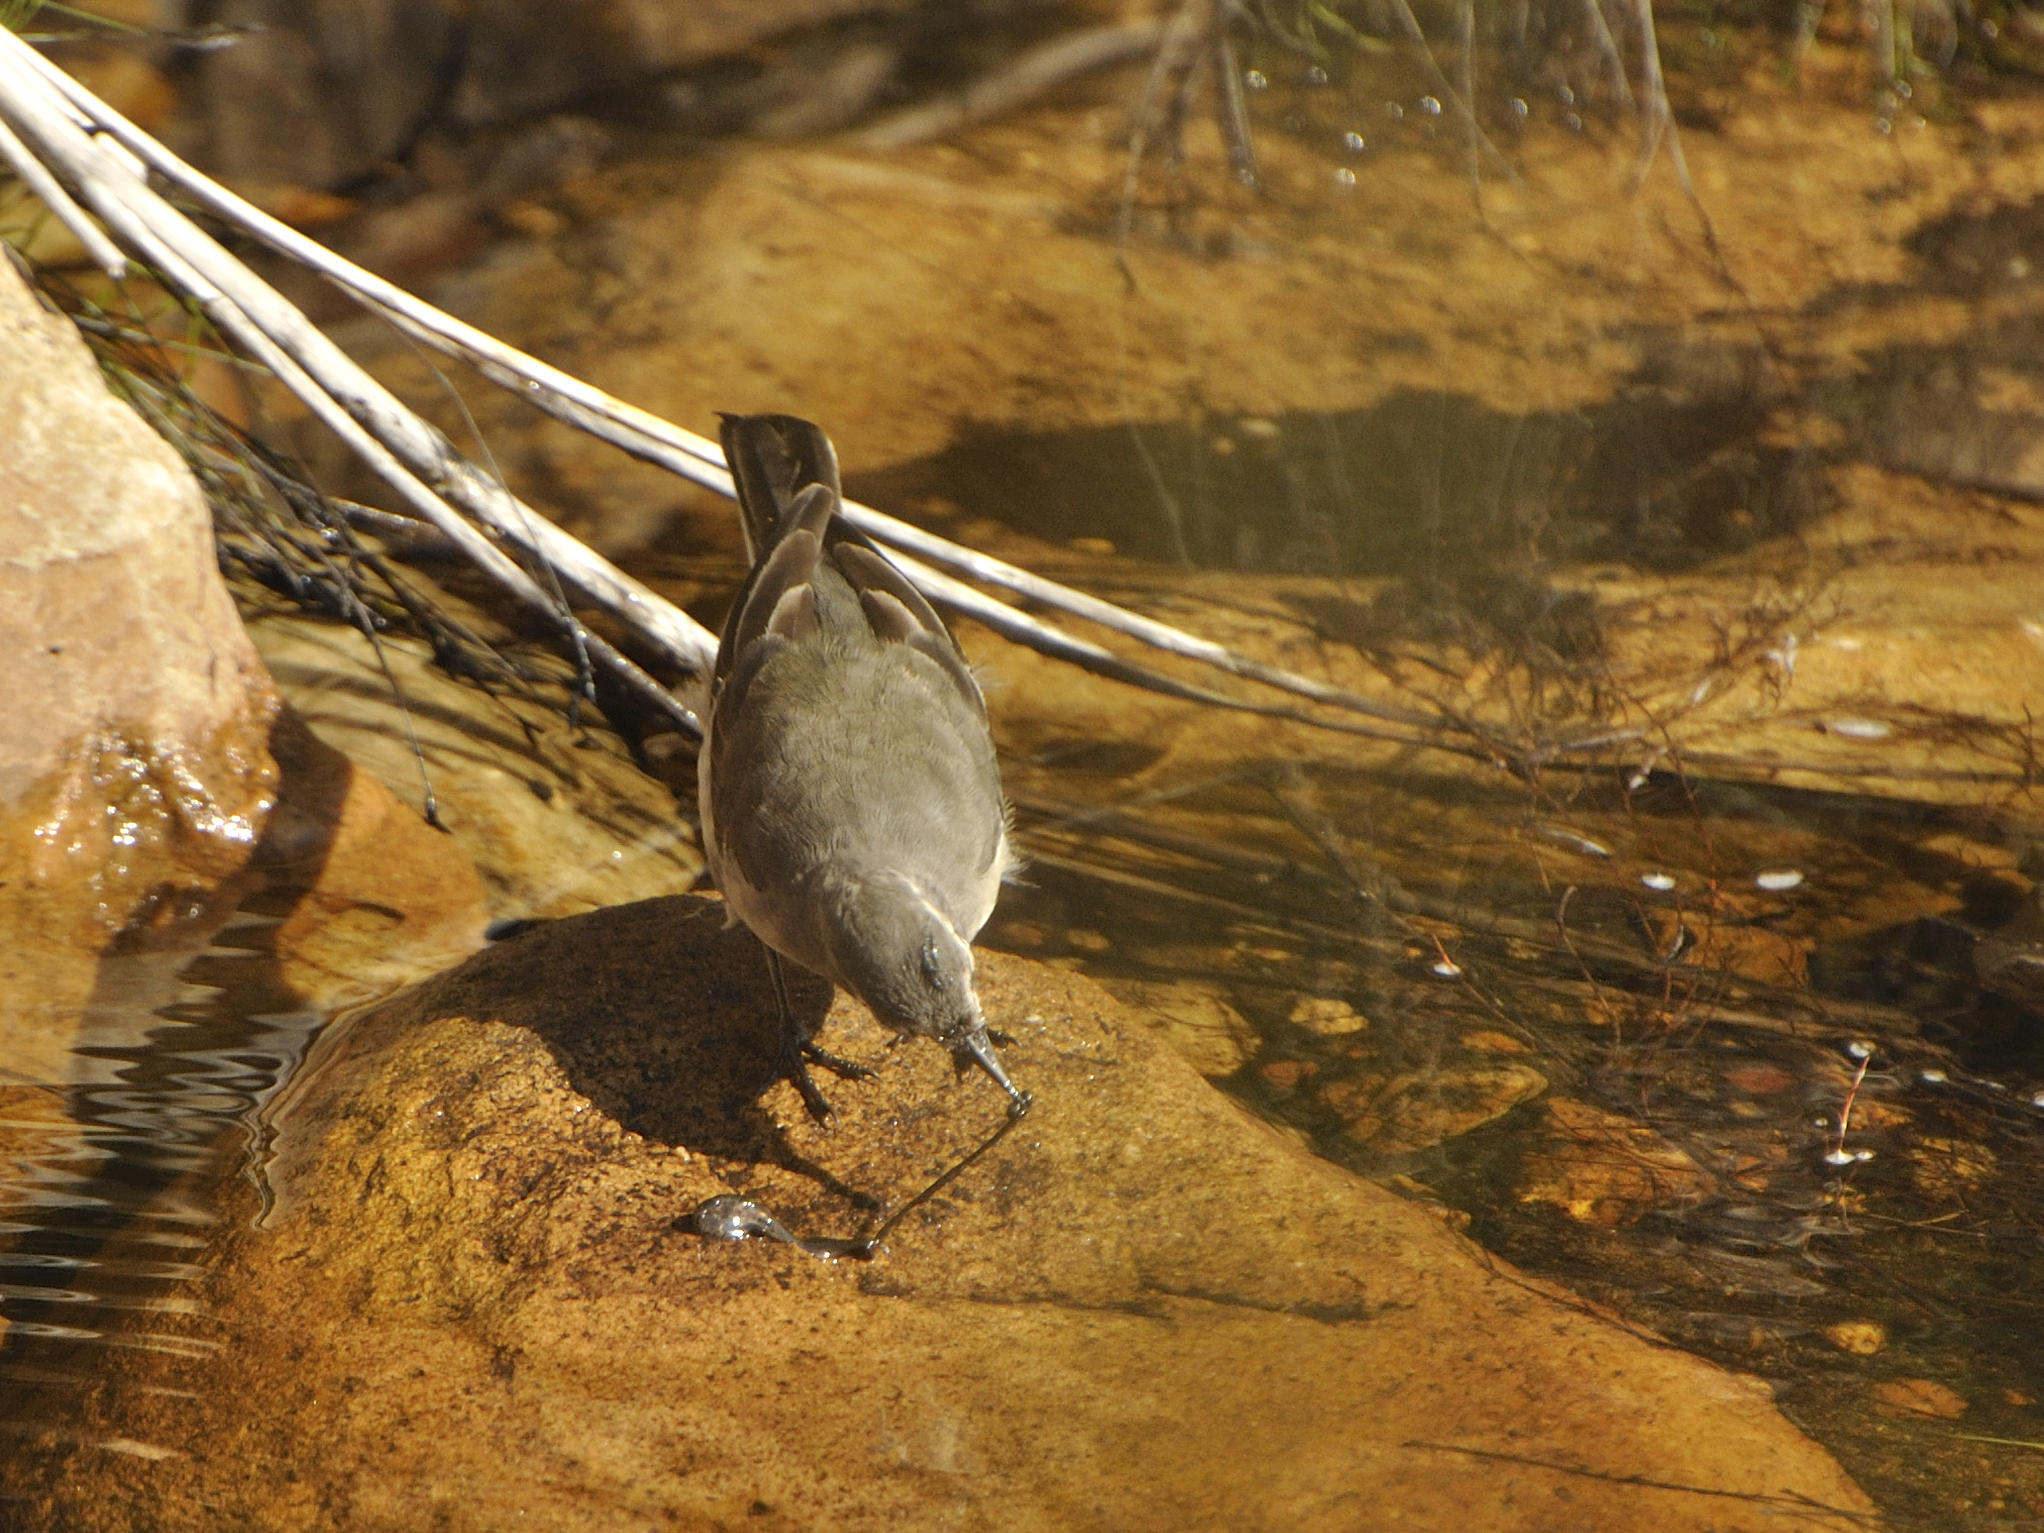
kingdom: Animalia
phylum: Chordata
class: Aves
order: Passeriformes
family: Motacillidae
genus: Motacilla
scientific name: Motacilla capensis
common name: Cape wagtail
